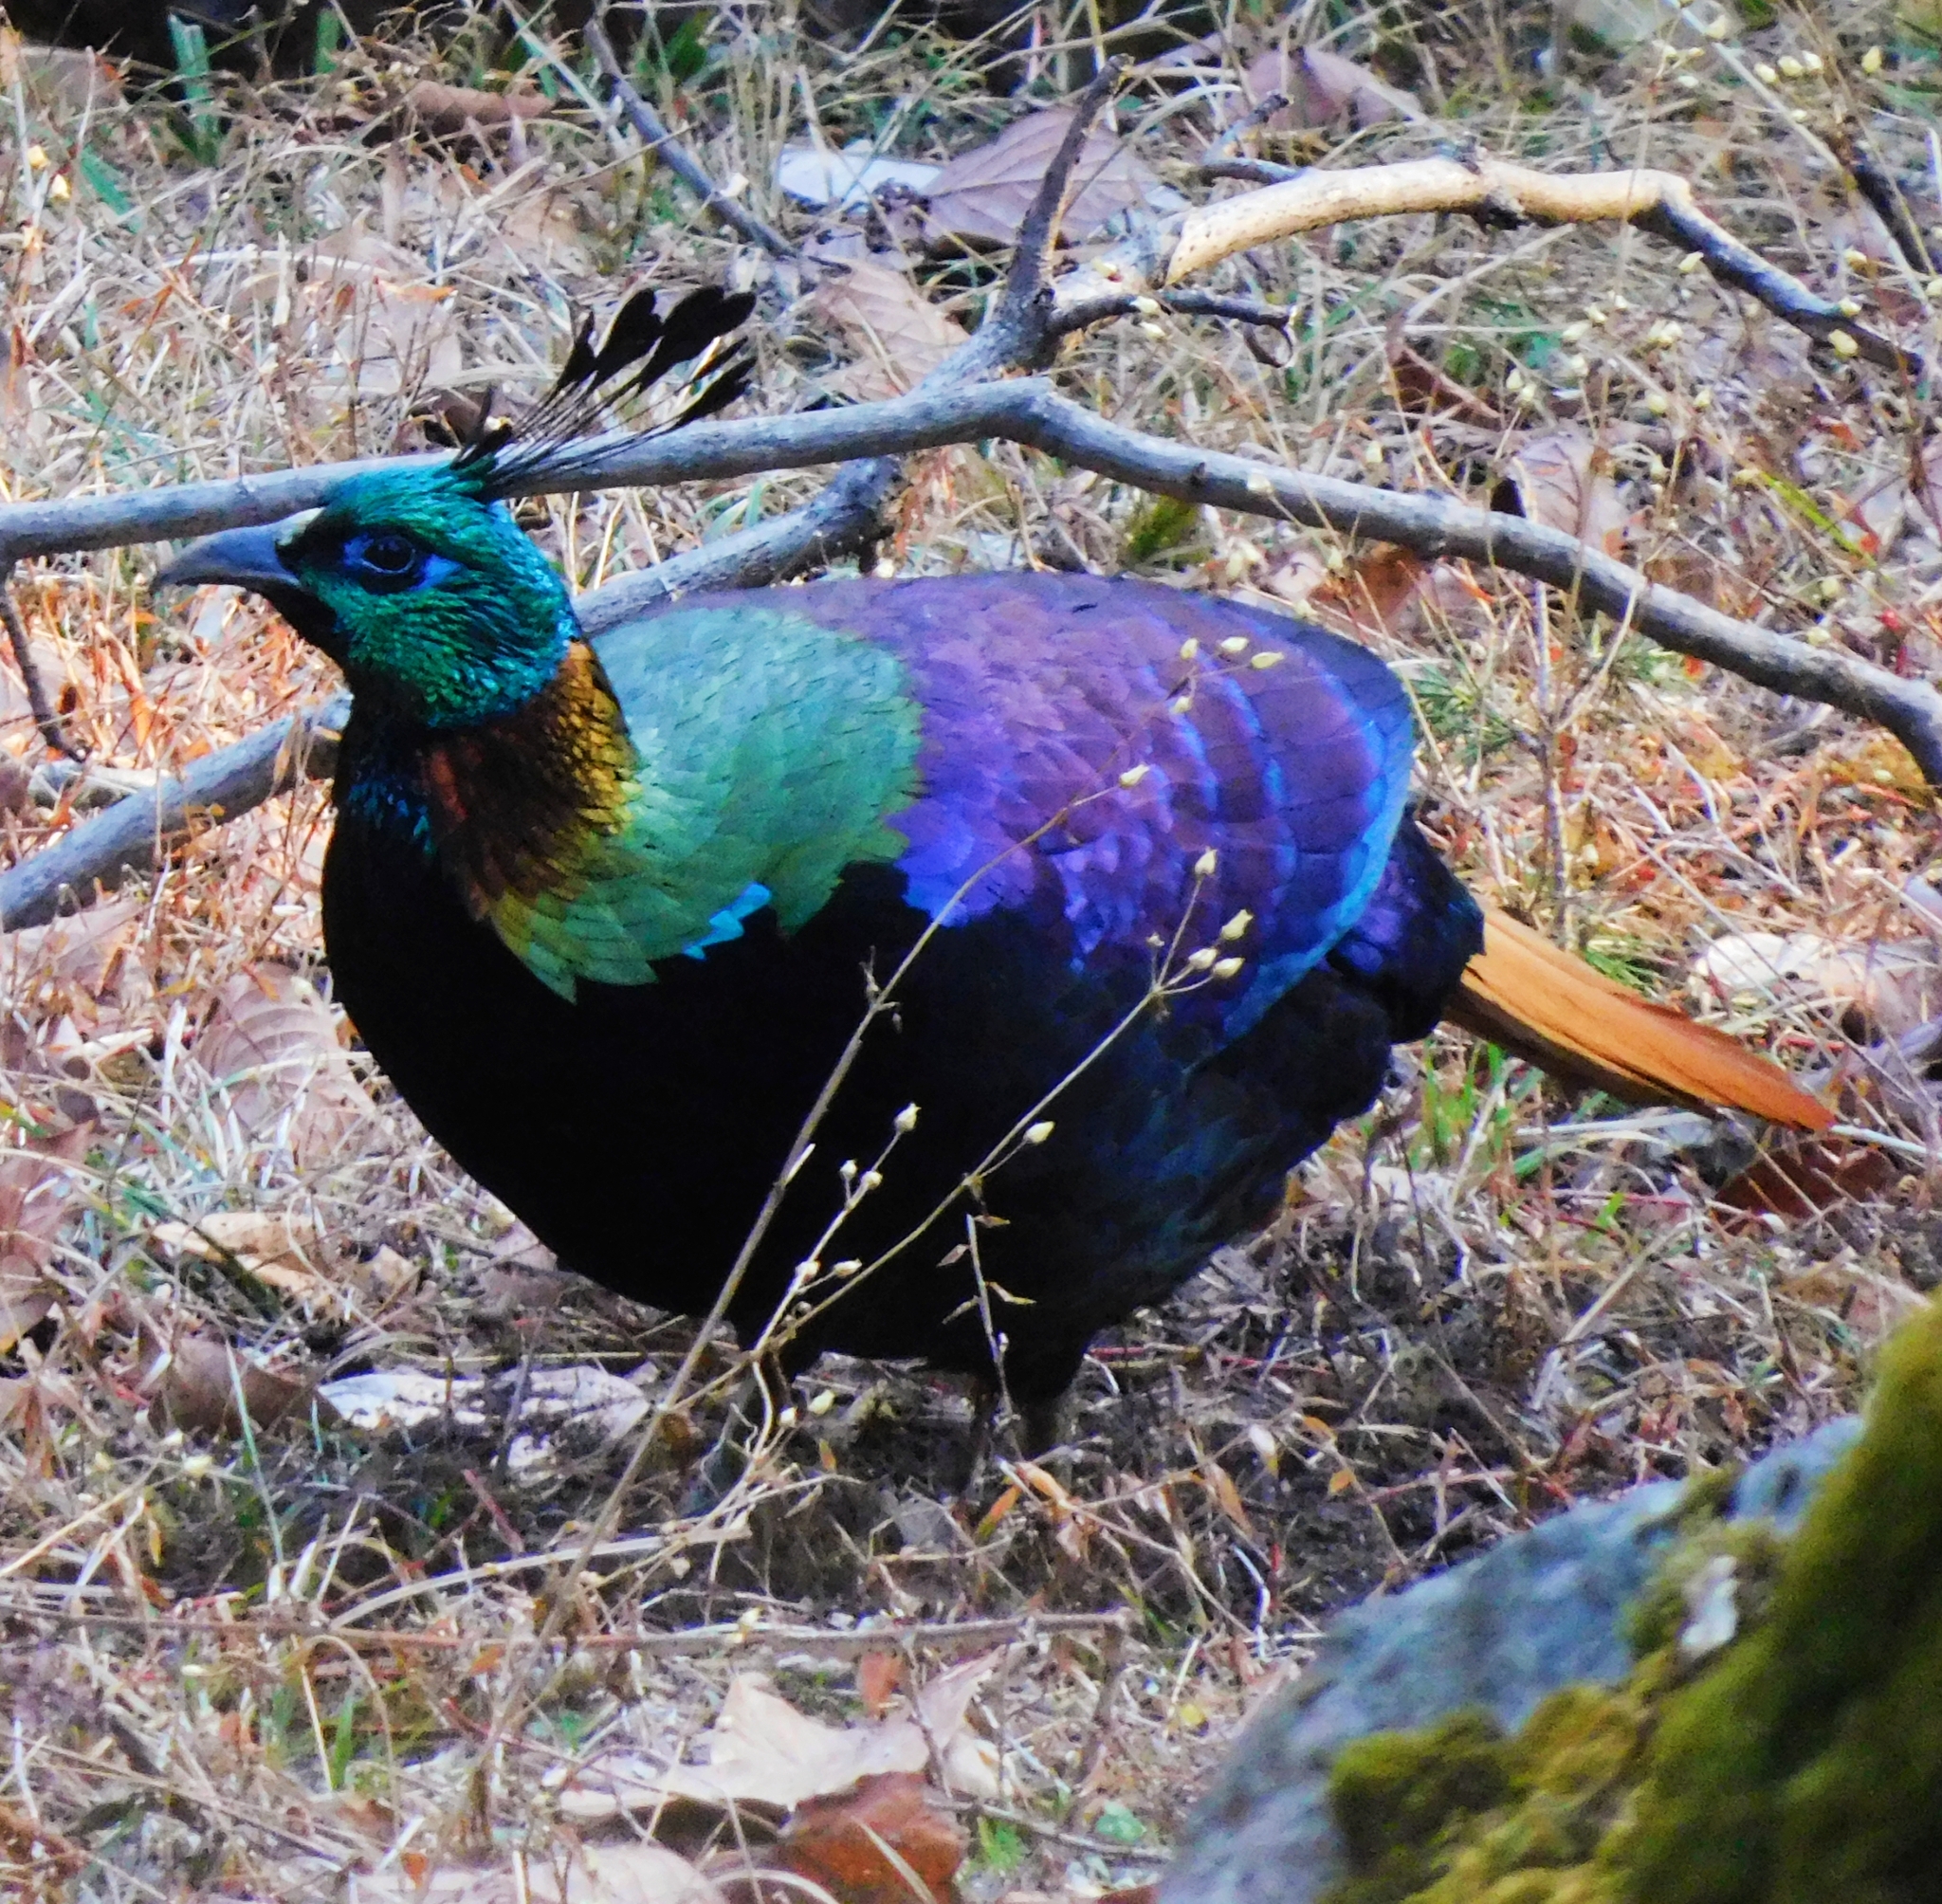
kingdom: Animalia
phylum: Chordata
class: Aves
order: Galliformes
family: Phasianidae
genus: Lophophorus
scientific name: Lophophorus impejanus
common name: Himalayan monal
